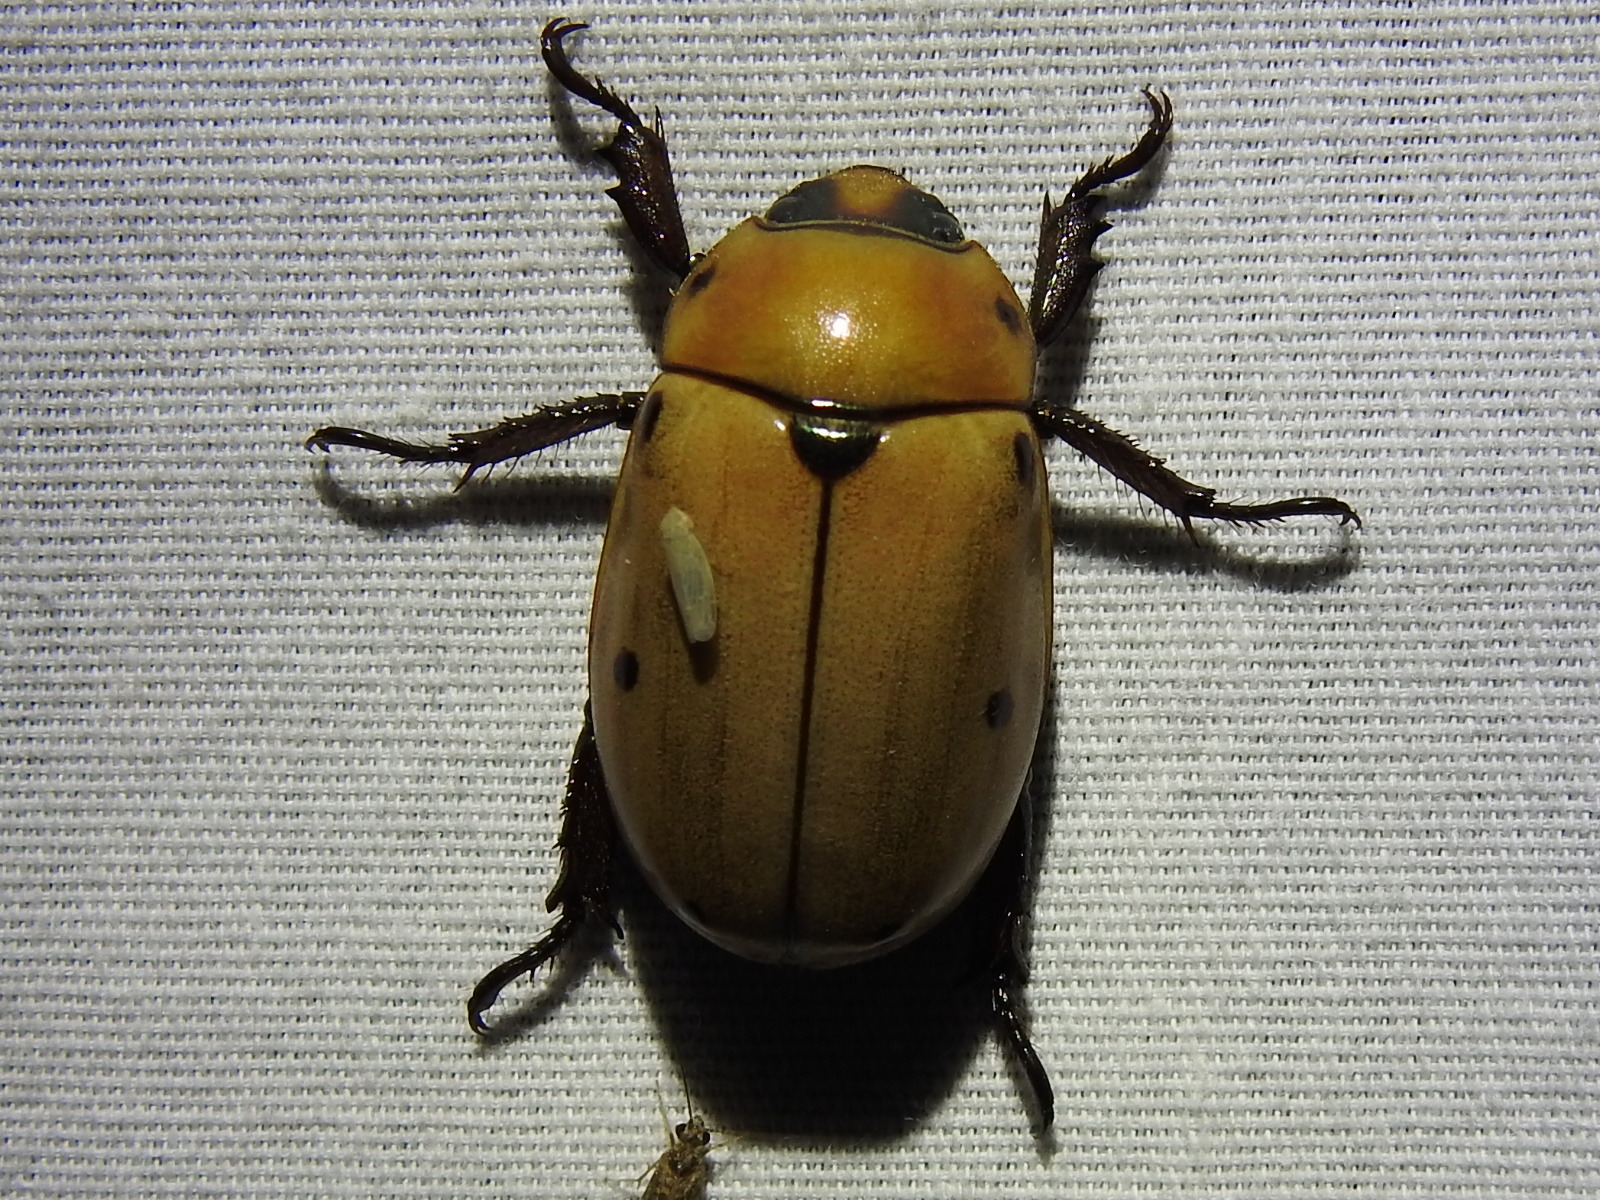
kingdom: Animalia
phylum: Arthropoda
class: Insecta
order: Coleoptera
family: Scarabaeidae
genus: Pelidnota
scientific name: Pelidnota punctata
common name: Grapevine beetle
